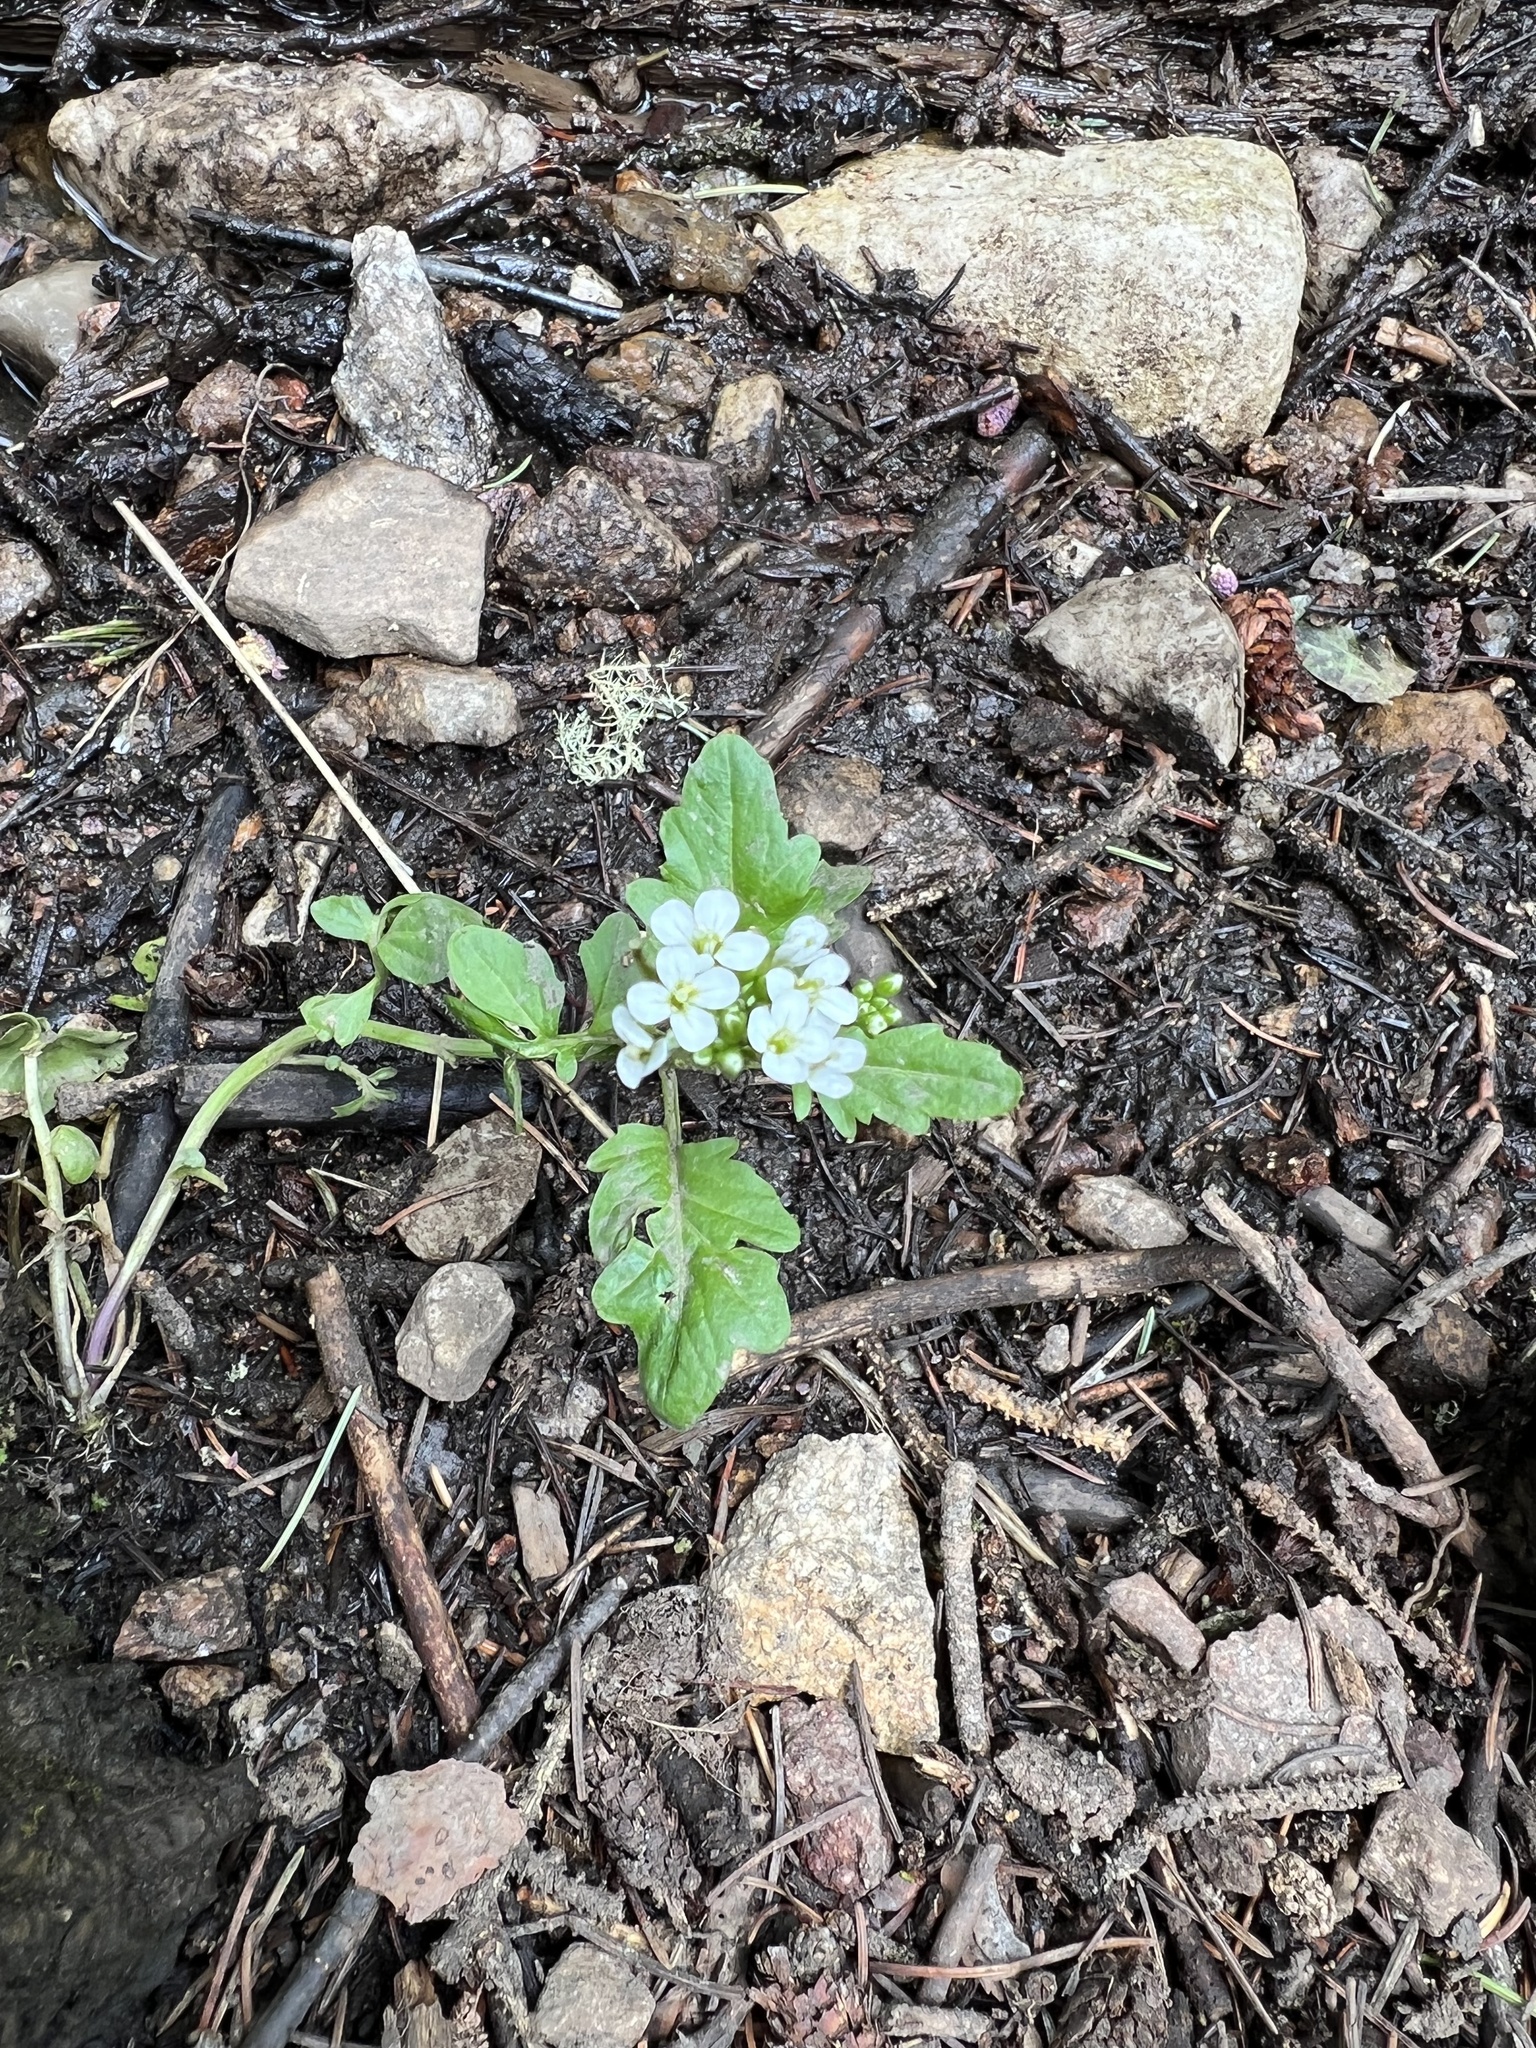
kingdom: Plantae
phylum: Tracheophyta
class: Magnoliopsida
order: Brassicales
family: Brassicaceae
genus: Cardamine
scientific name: Cardamine breweri
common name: Brewer's bittercress
